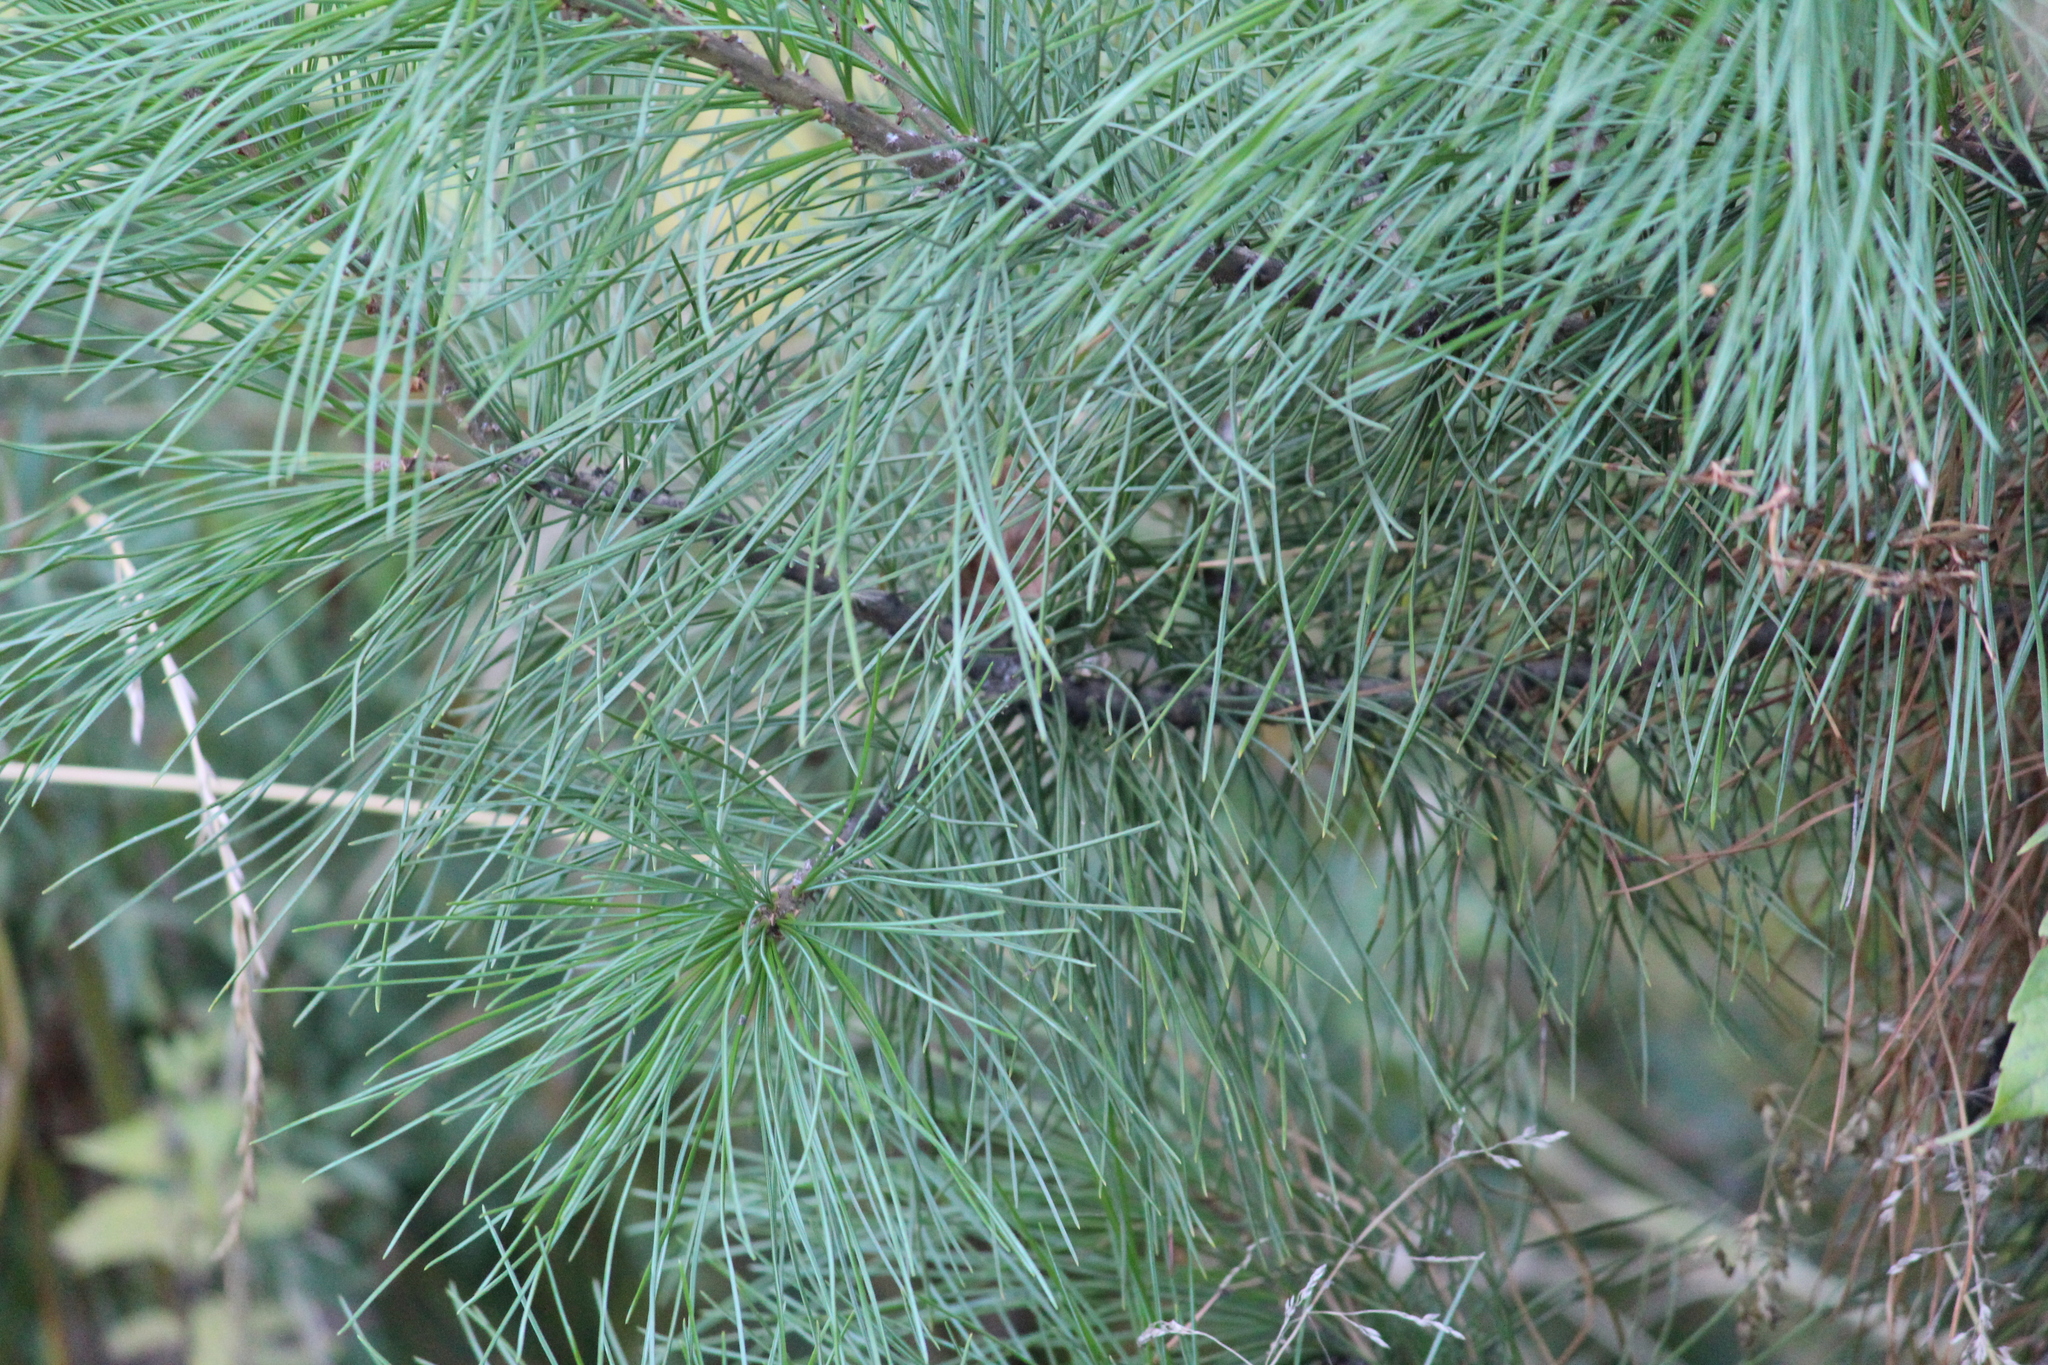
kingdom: Plantae
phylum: Tracheophyta
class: Pinopsida
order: Pinales
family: Pinaceae
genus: Pinus
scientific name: Pinus sibirica
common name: Siberian pine
